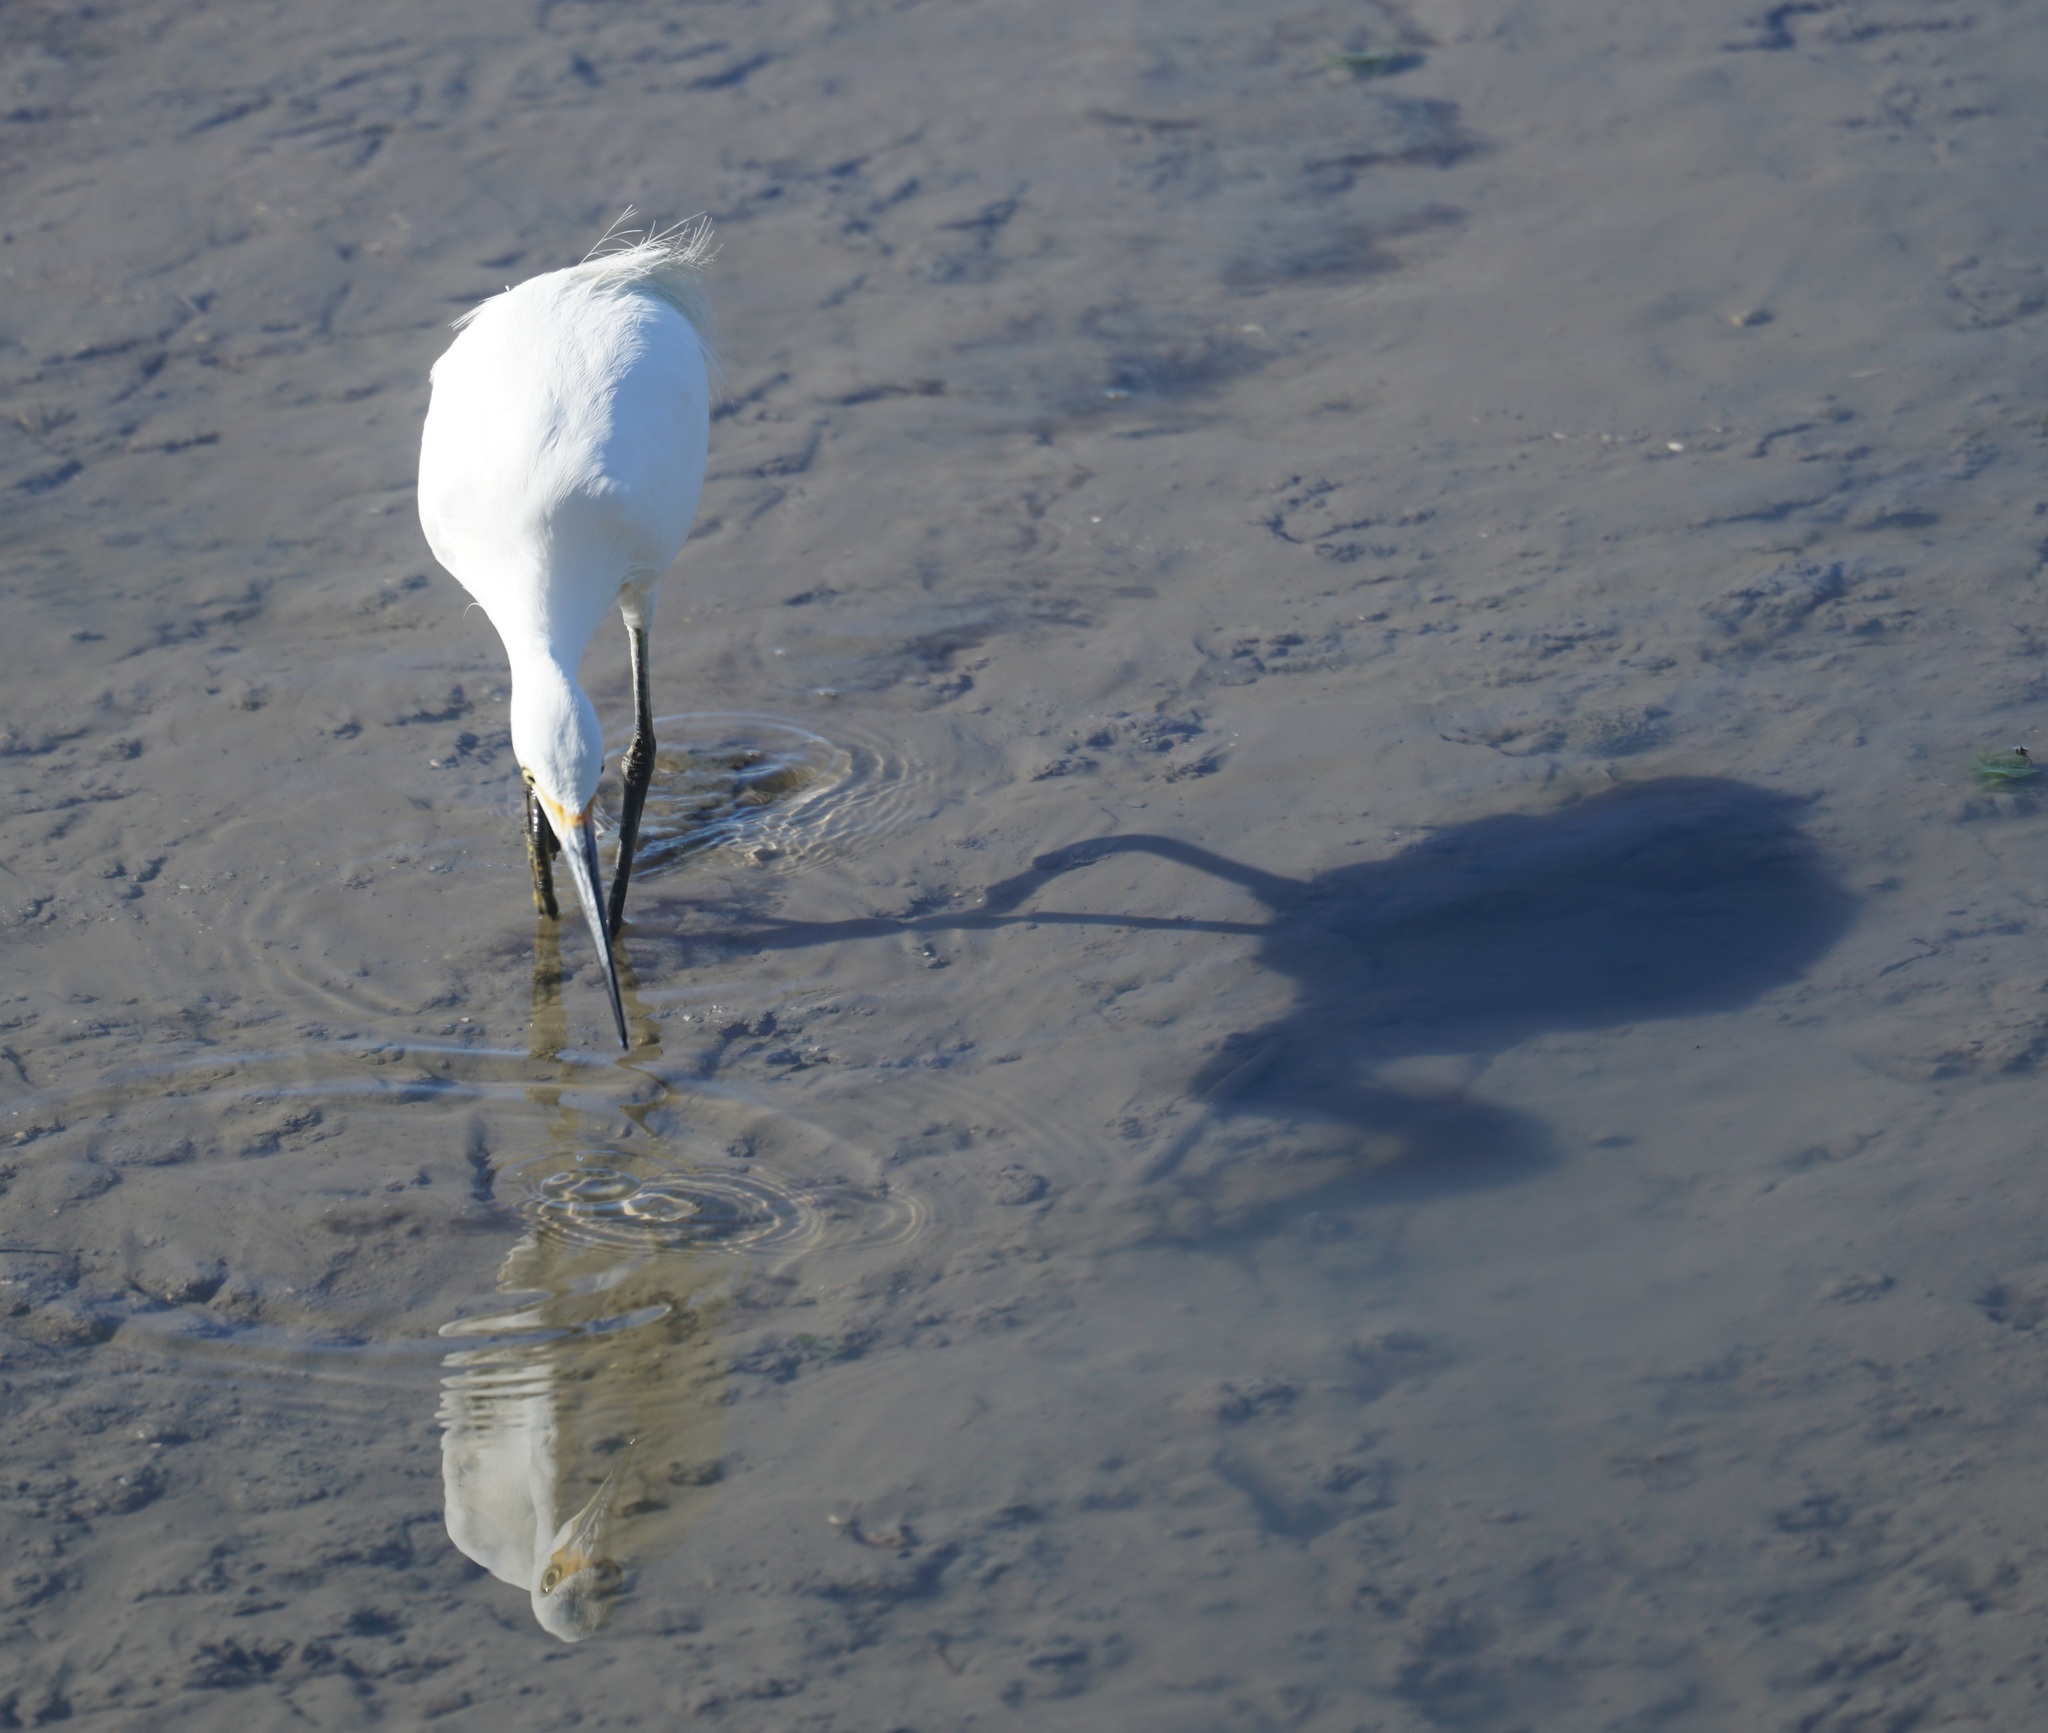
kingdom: Animalia
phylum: Chordata
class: Aves
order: Pelecaniformes
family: Ardeidae
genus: Egretta
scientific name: Egretta garzetta
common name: Little egret
